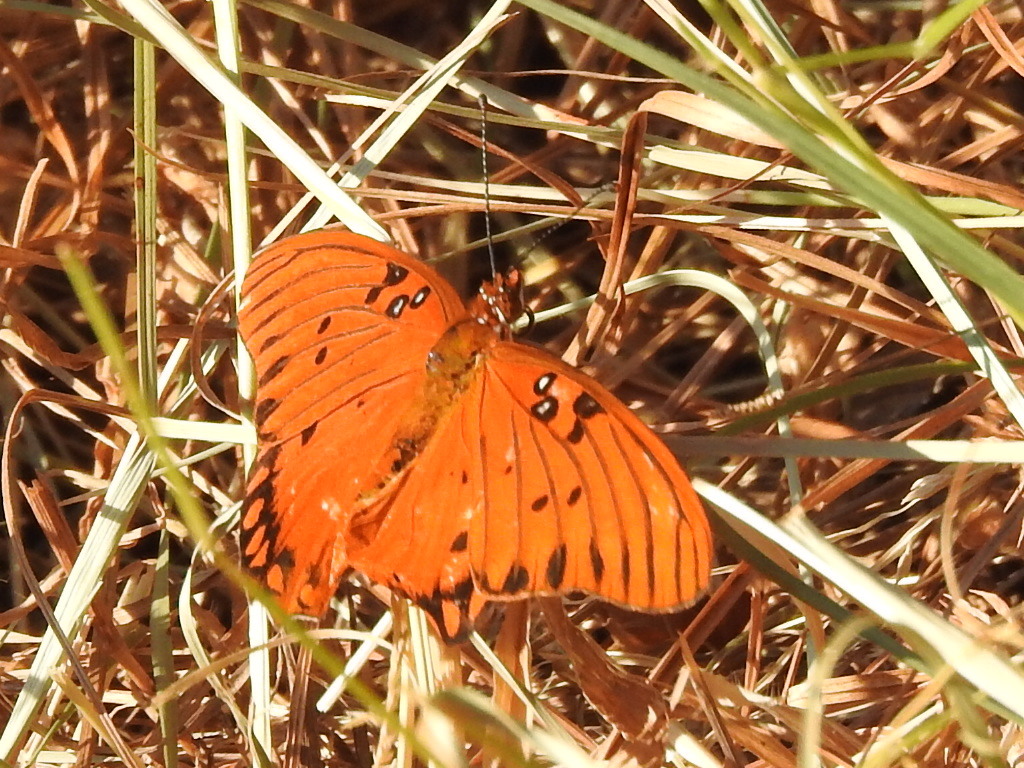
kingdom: Animalia
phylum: Arthropoda
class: Insecta
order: Lepidoptera
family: Nymphalidae
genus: Dione
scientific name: Dione vanillae
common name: Gulf fritillary
